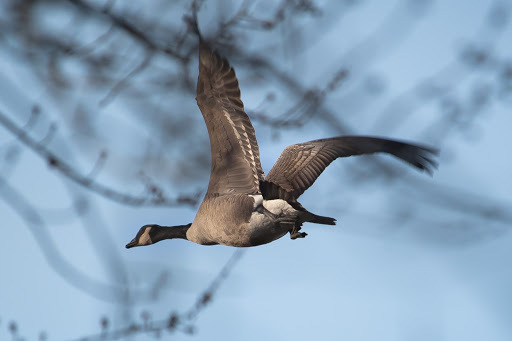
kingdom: Animalia
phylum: Chordata
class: Aves
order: Anseriformes
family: Anatidae
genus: Branta
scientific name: Branta canadensis
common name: Canada goose
